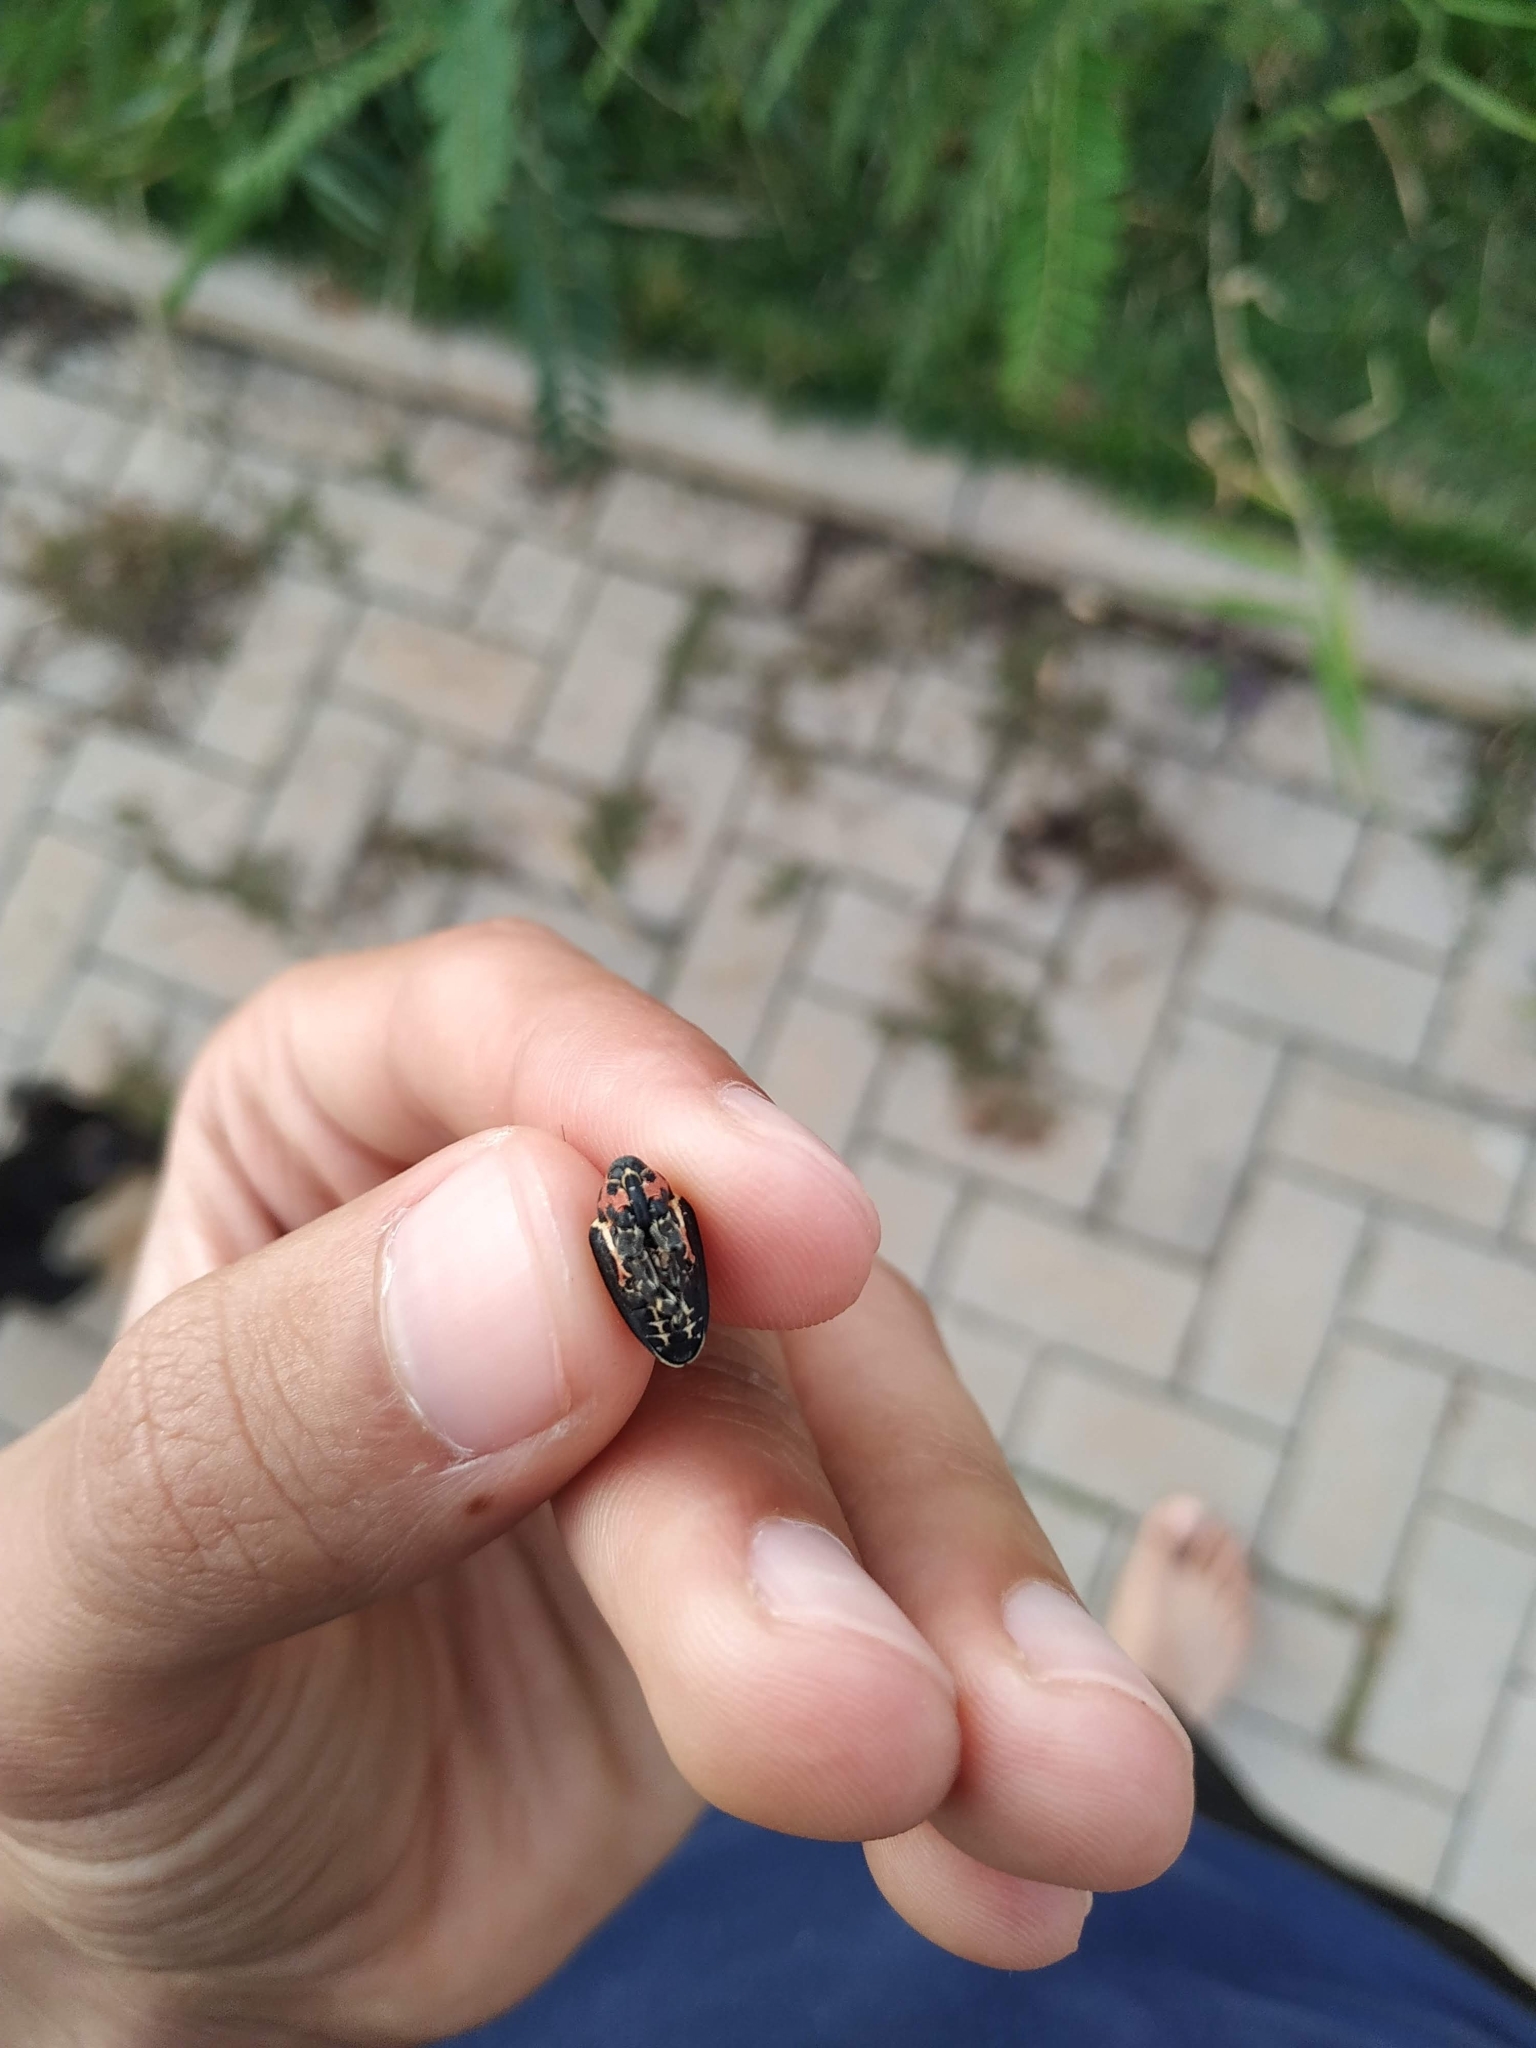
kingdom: Animalia
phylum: Arthropoda
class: Insecta
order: Coleoptera
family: Curculionidae
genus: Neodiplogrammus
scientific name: Neodiplogrammus
